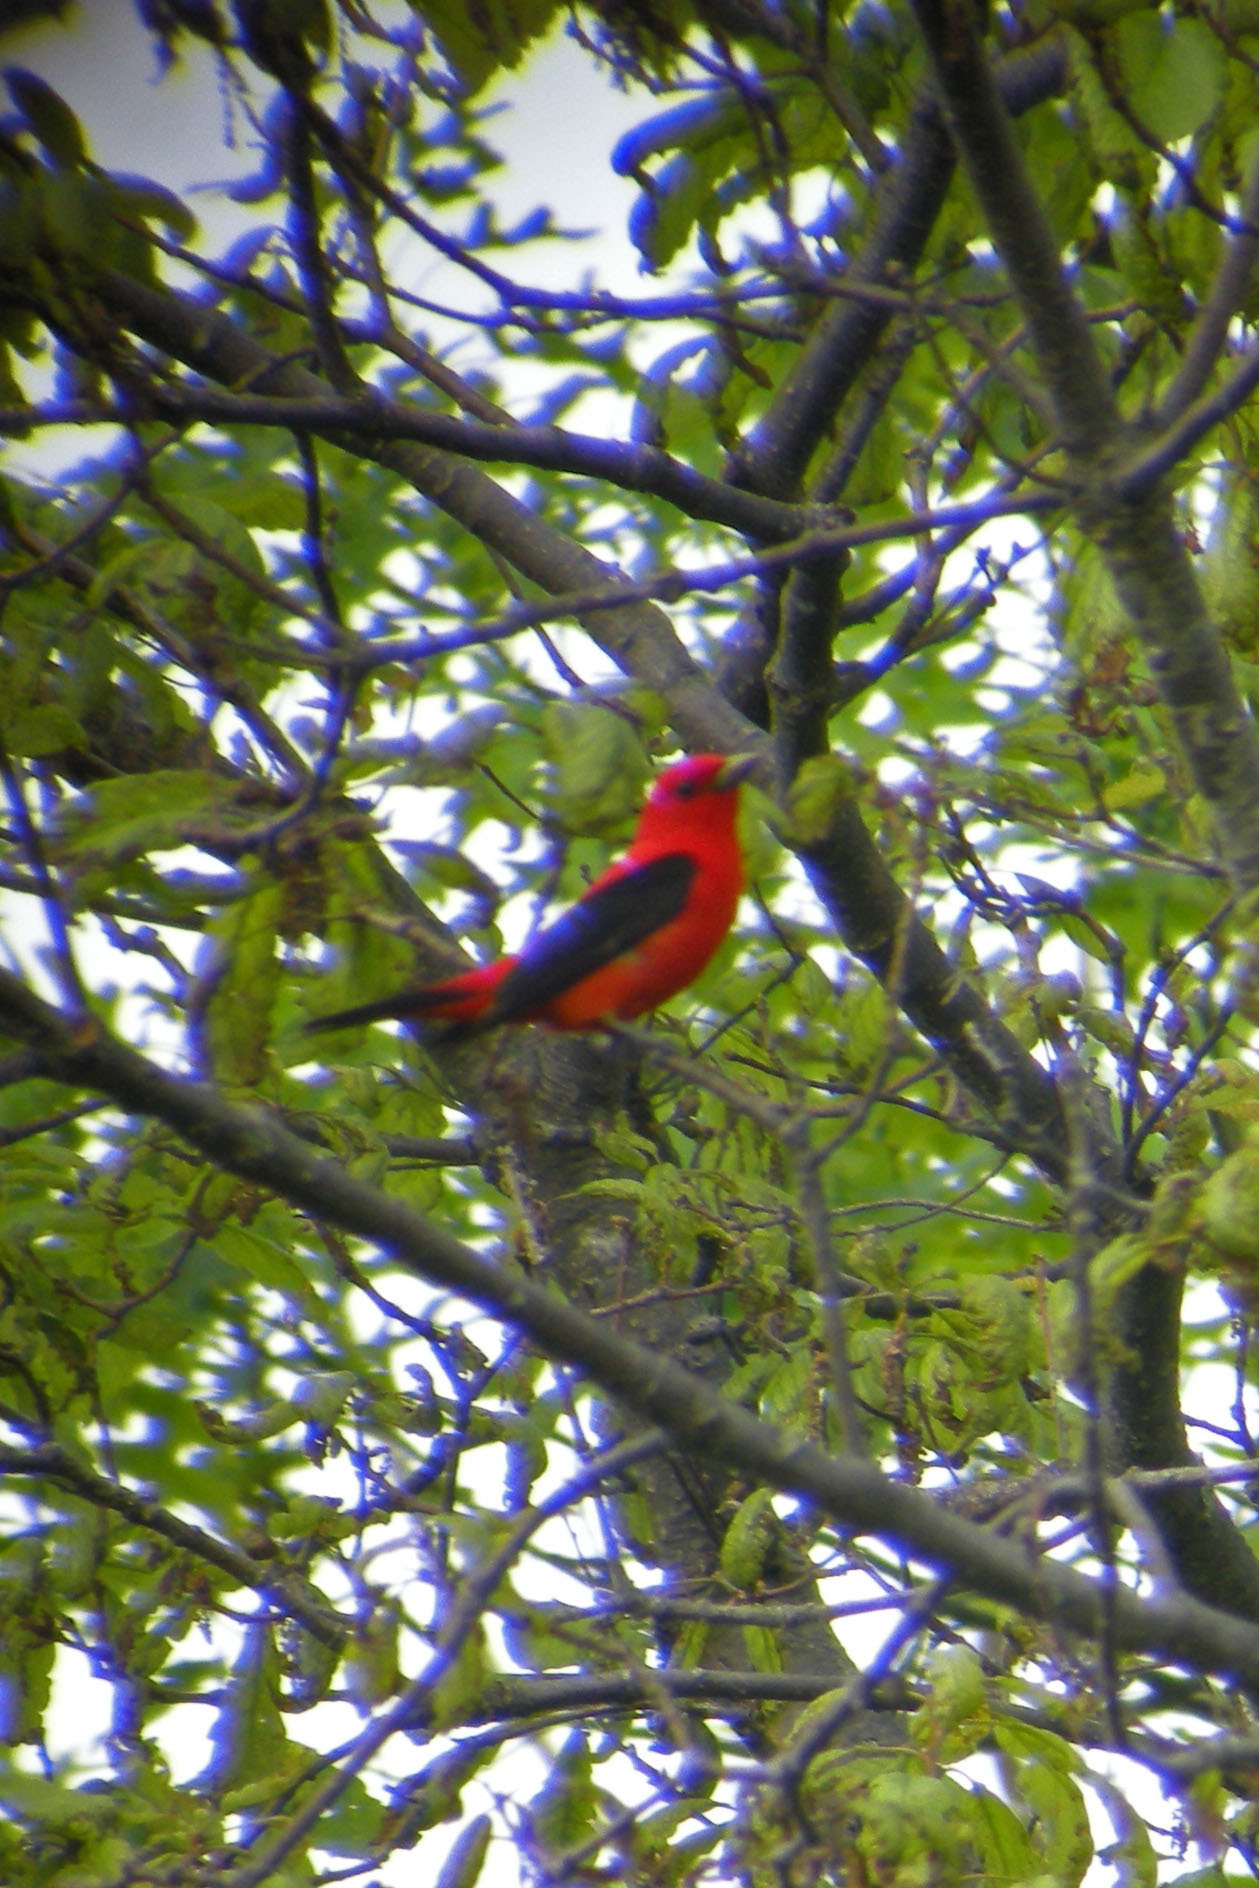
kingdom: Animalia
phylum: Chordata
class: Aves
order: Passeriformes
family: Cardinalidae
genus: Piranga
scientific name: Piranga olivacea
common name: Scarlet tanager
